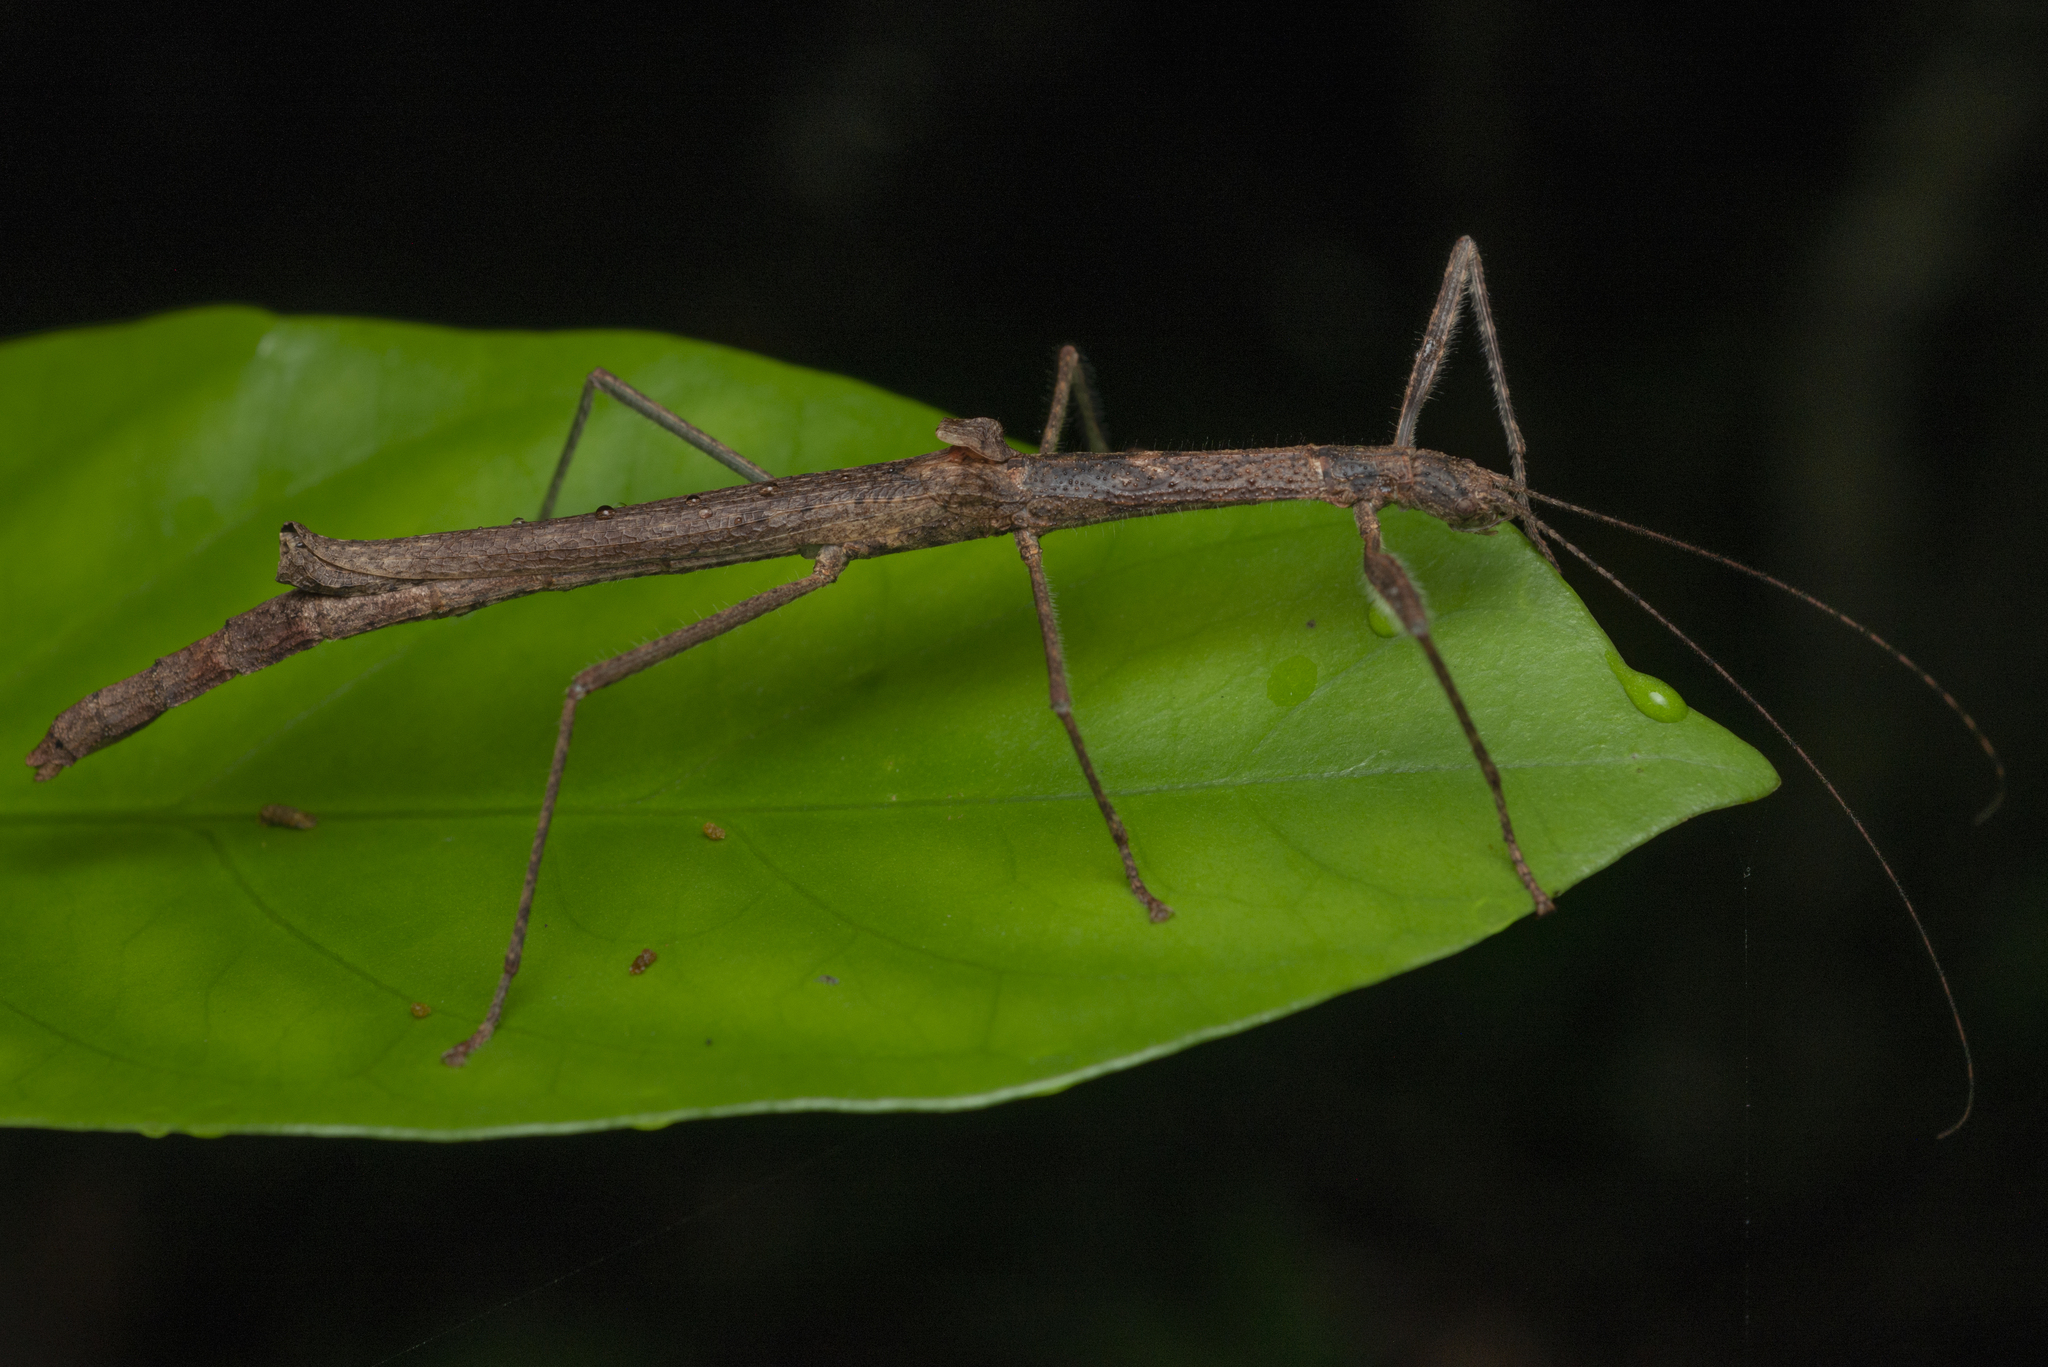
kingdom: Animalia
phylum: Arthropoda
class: Insecta
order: Phasmida
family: Lonchodidae
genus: Planososibia
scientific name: Planososibia truncata
